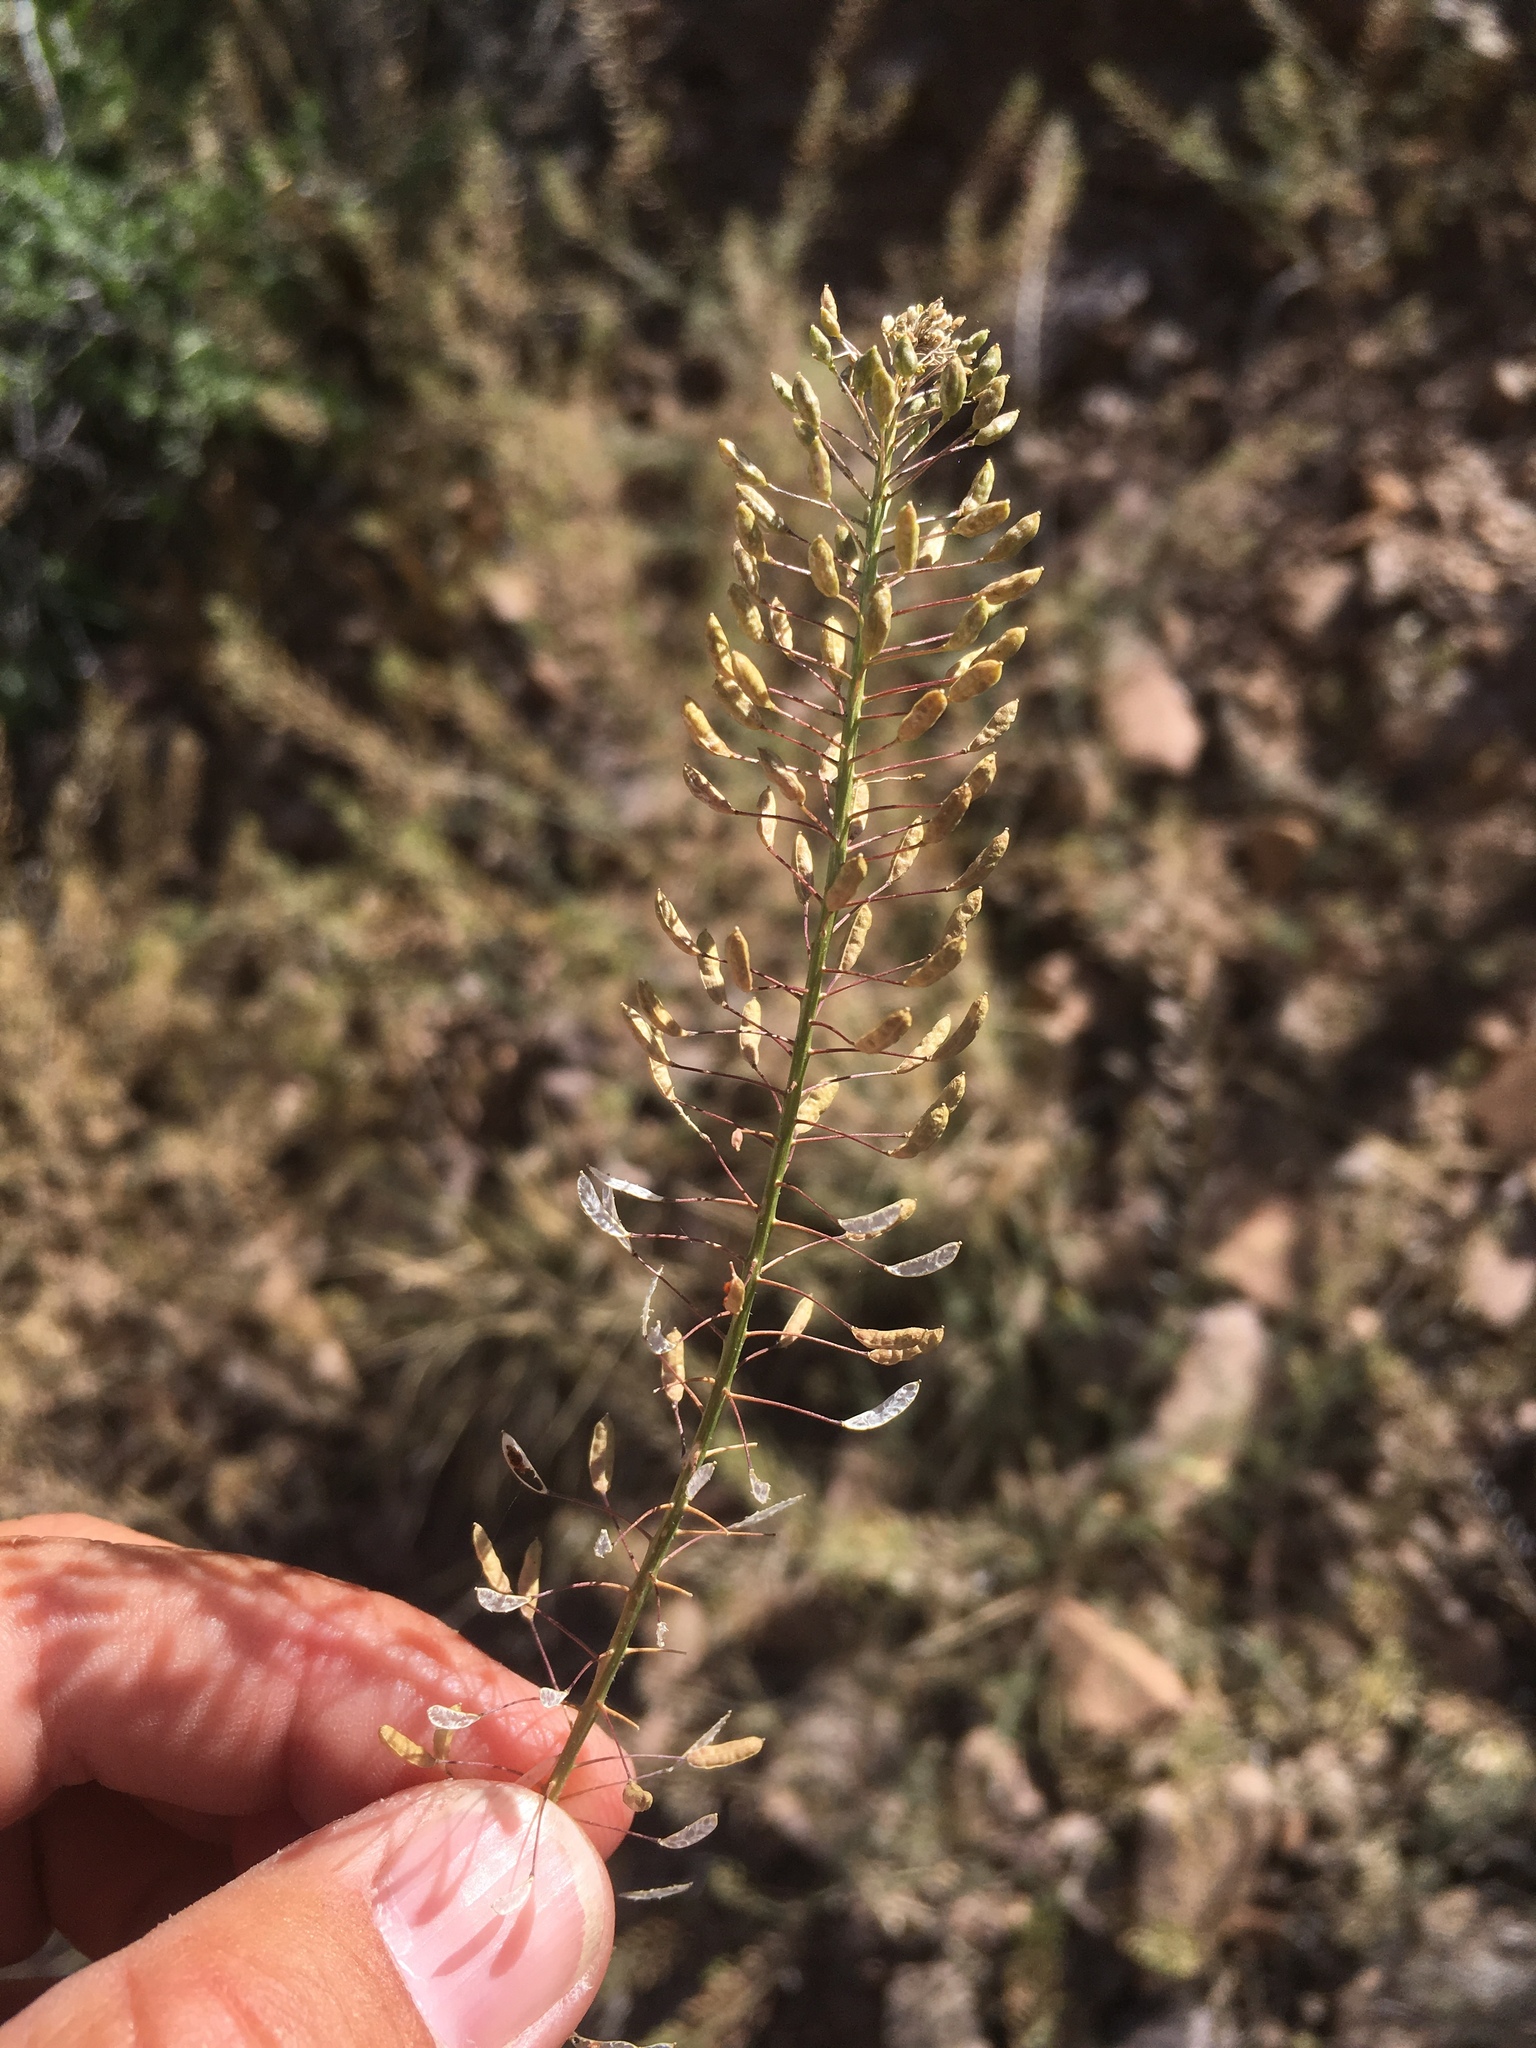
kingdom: Plantae
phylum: Tracheophyta
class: Magnoliopsida
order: Brassicales
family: Brassicaceae
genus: Descurainia
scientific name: Descurainia pinnata
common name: Western tansy mustard
